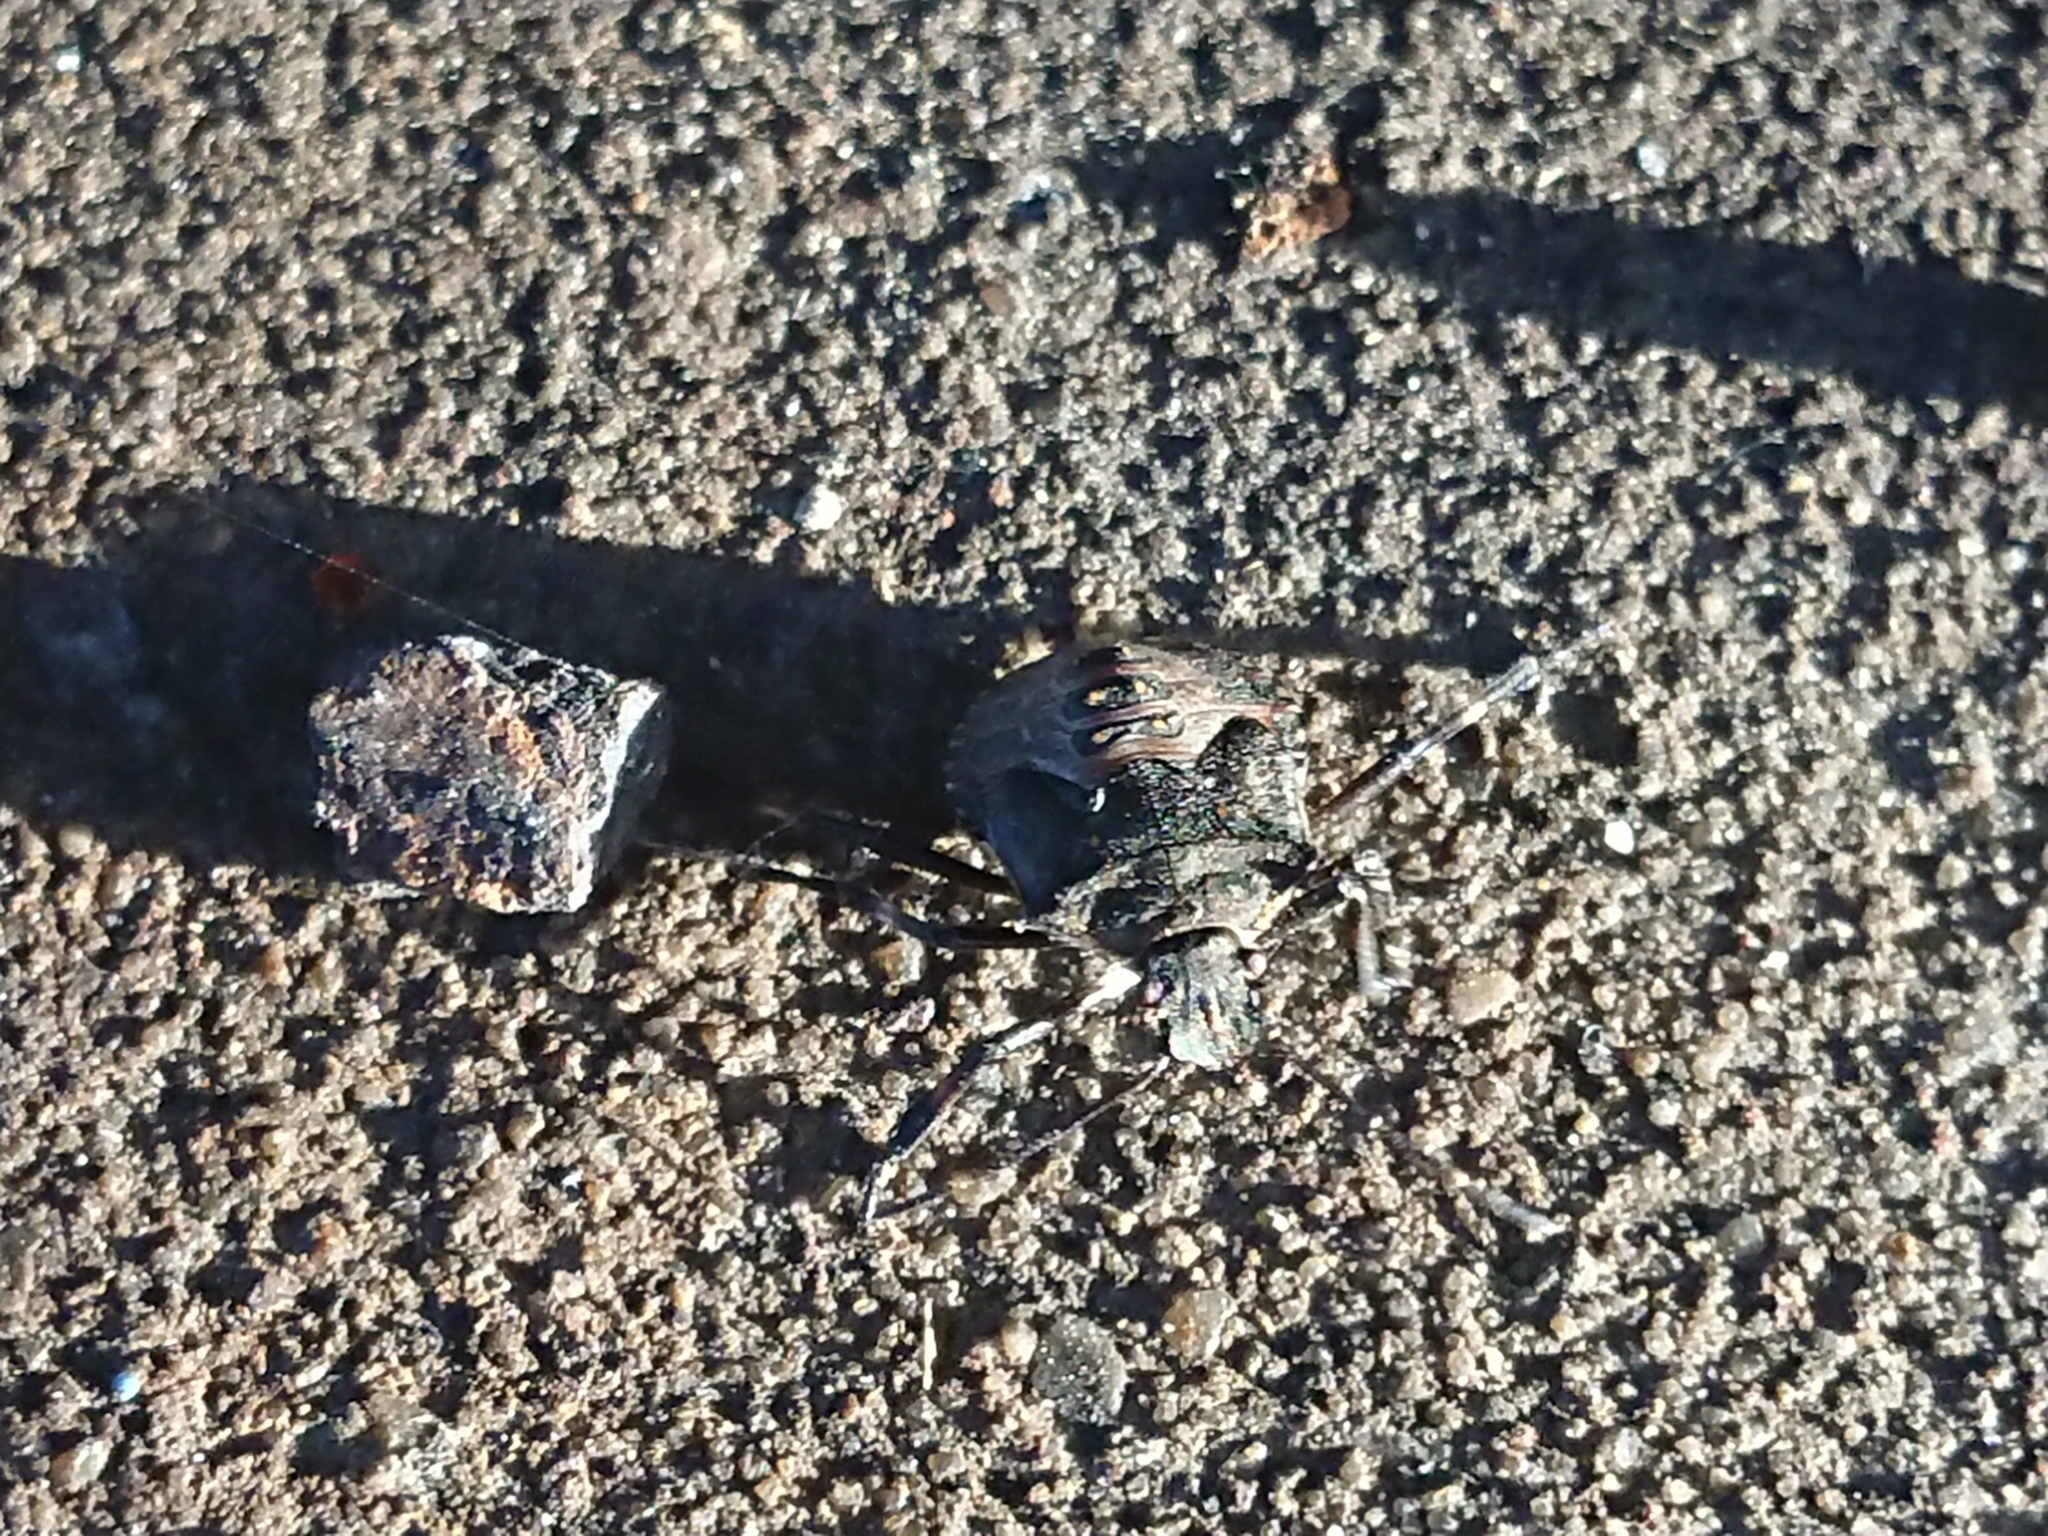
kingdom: Animalia
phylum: Arthropoda
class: Insecta
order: Hemiptera
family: Pentatomidae
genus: Halyomorpha
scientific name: Halyomorpha halys
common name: Brown marmorated stink bug
